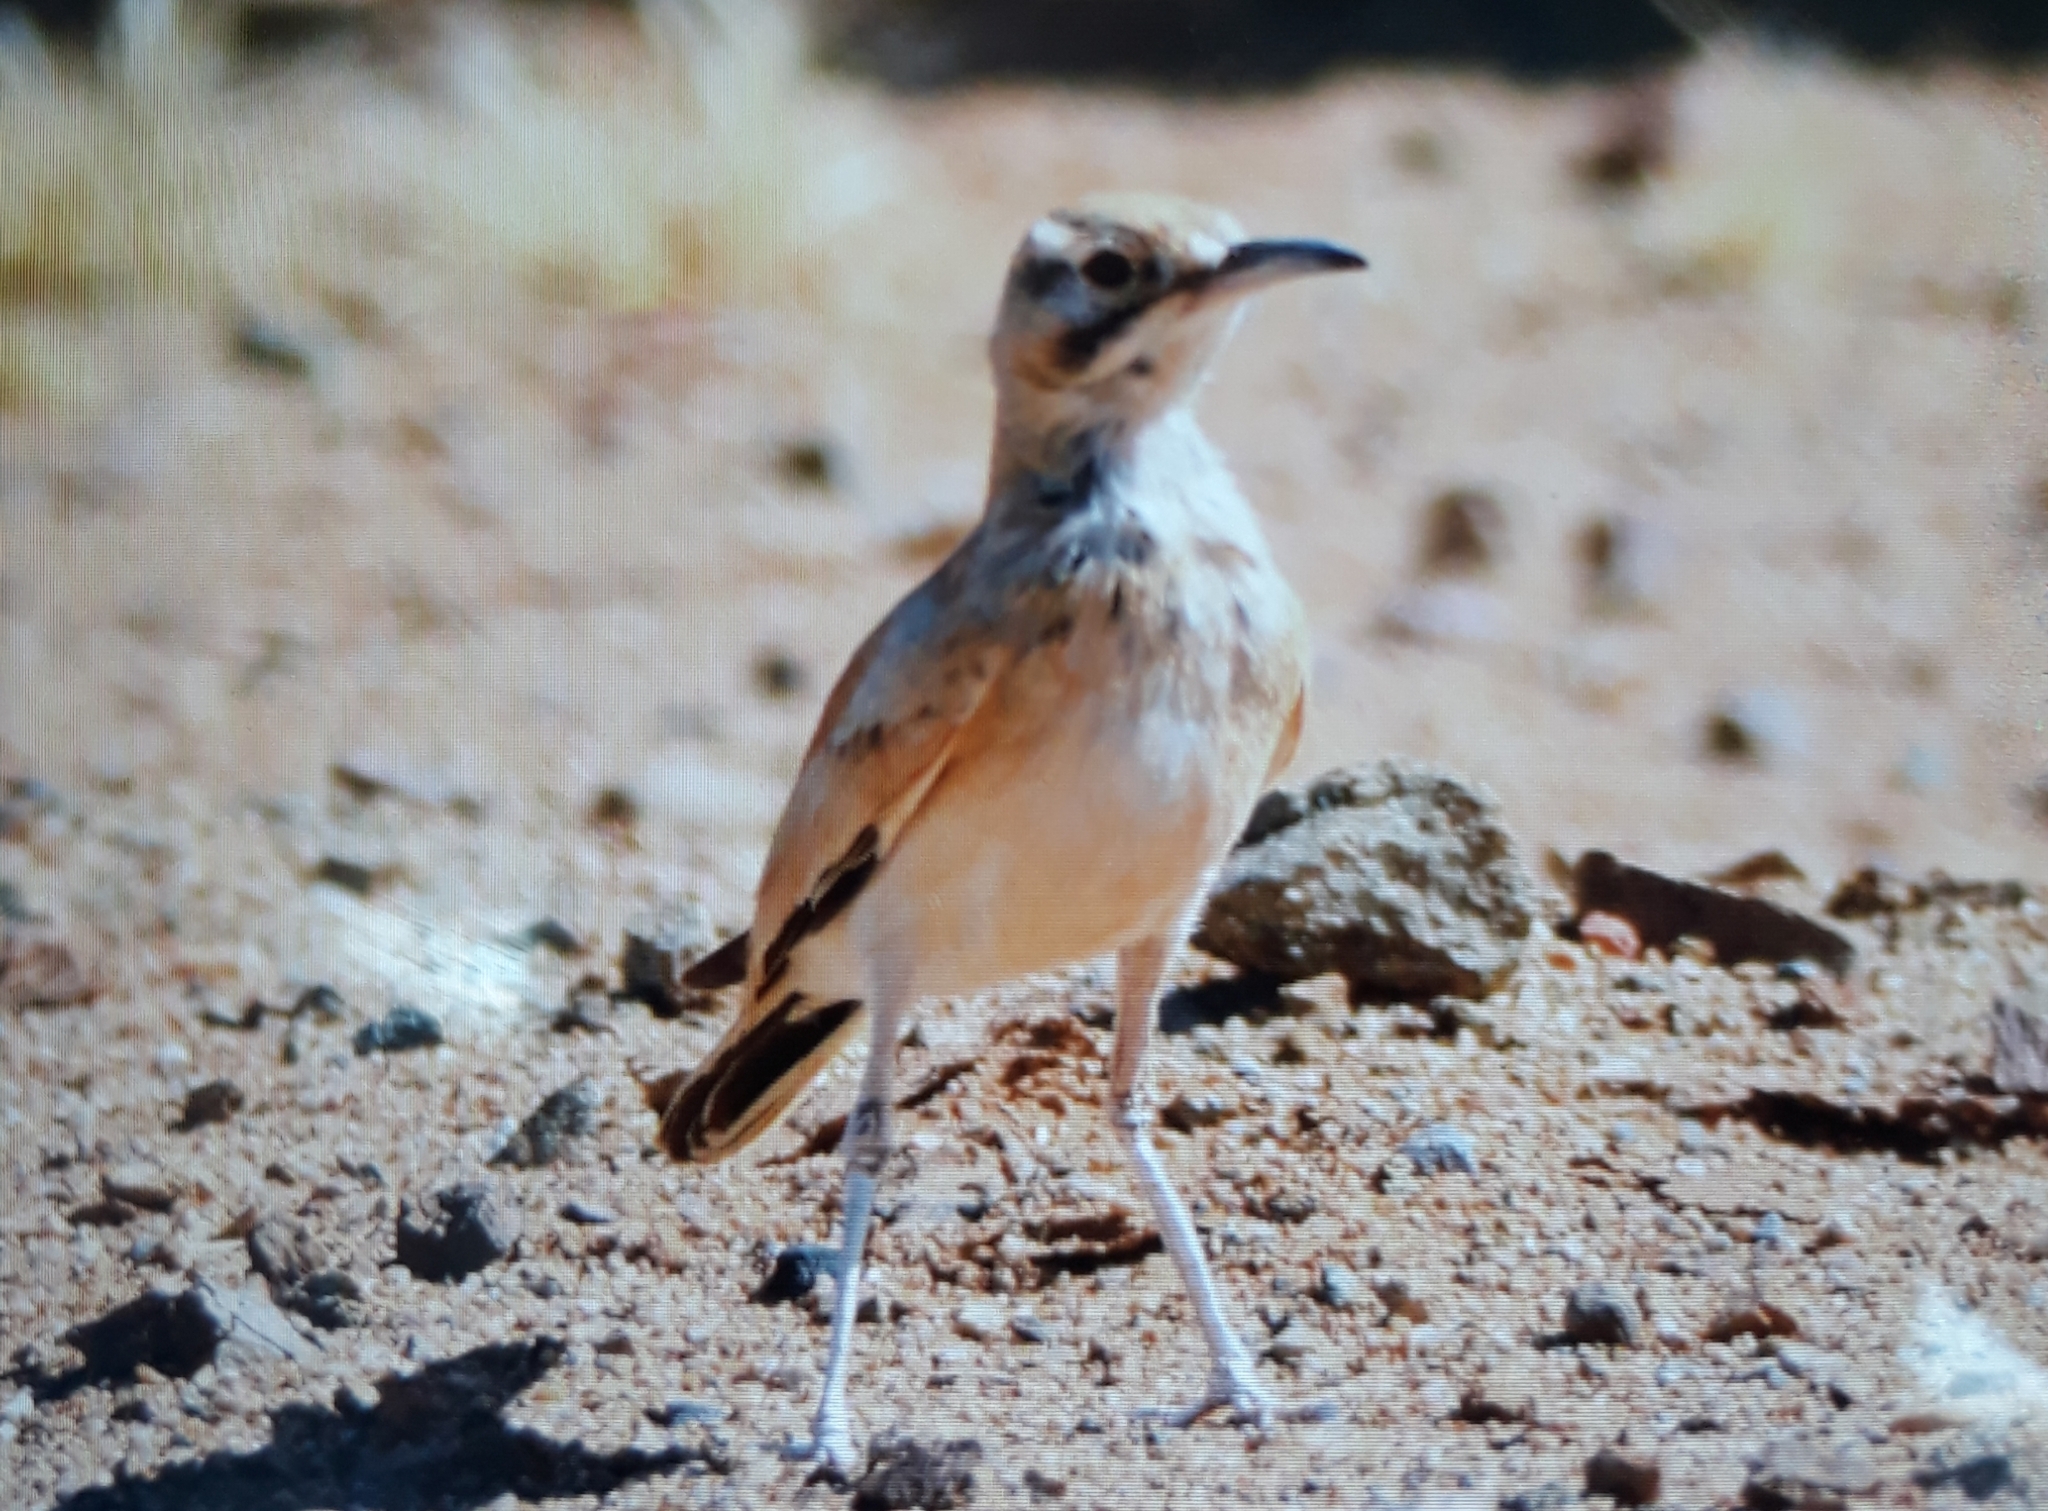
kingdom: Animalia
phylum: Chordata
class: Aves
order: Passeriformes
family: Alaudidae
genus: Alaemon
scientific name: Alaemon alaudipes
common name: Greater hoopoe-lark
